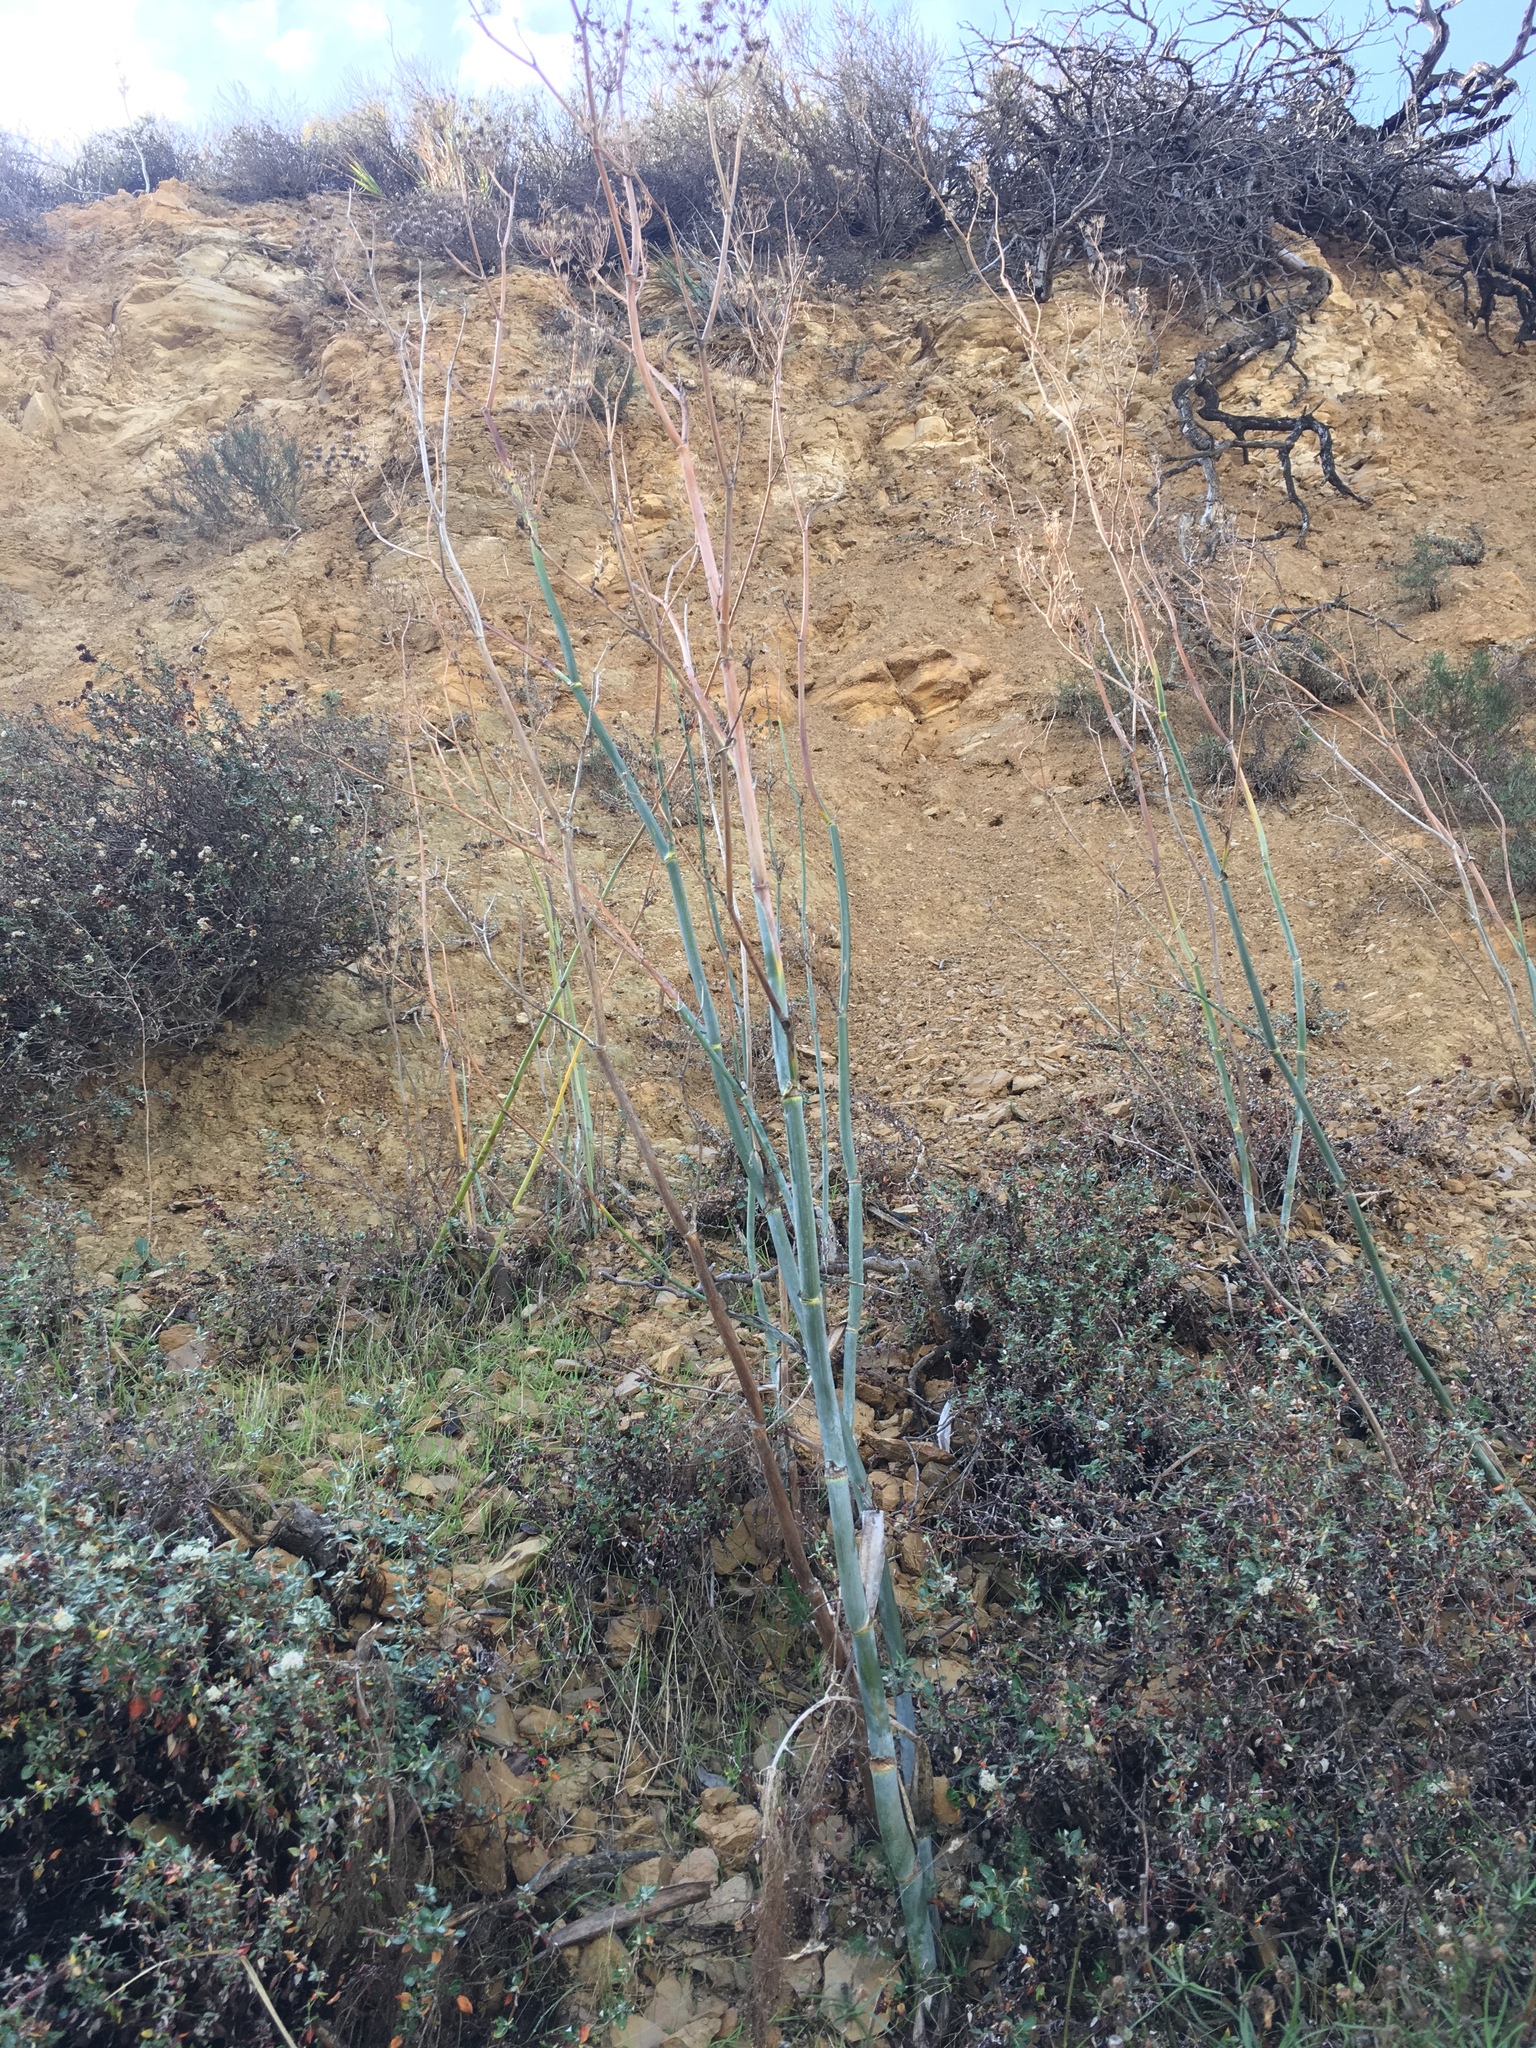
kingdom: Plantae
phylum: Tracheophyta
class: Magnoliopsida
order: Apiales
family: Apiaceae
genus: Foeniculum
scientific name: Foeniculum vulgare
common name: Fennel
